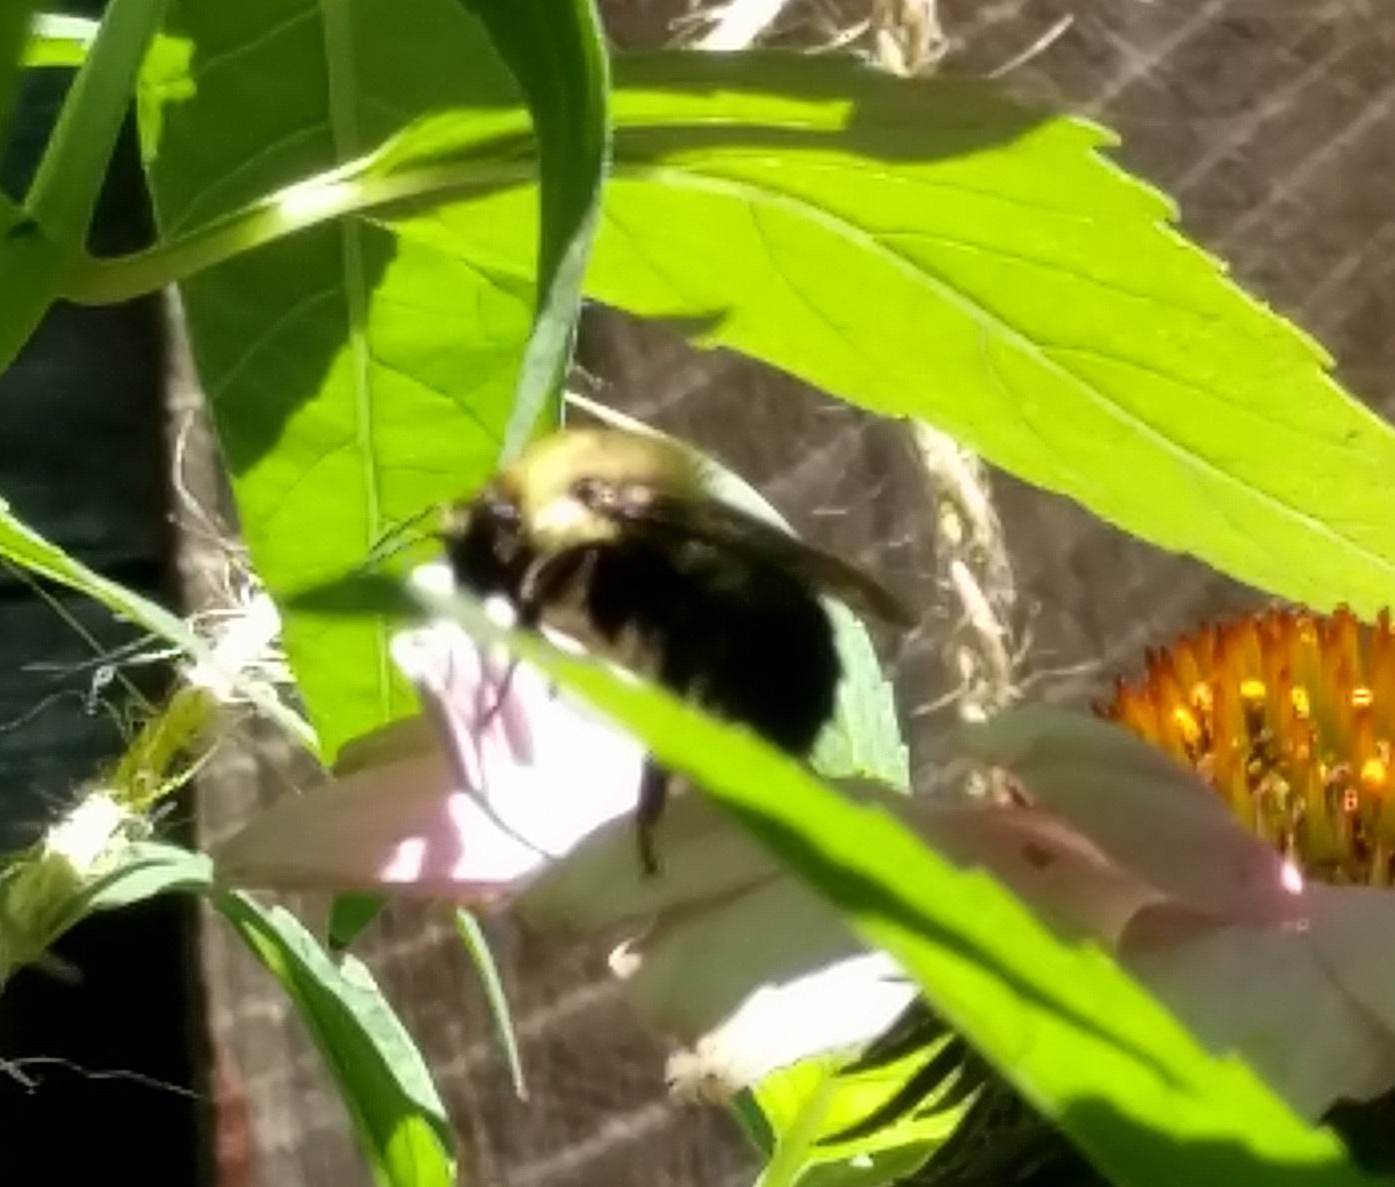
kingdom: Animalia
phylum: Arthropoda
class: Insecta
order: Hymenoptera
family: Apidae
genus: Bombus
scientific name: Bombus
